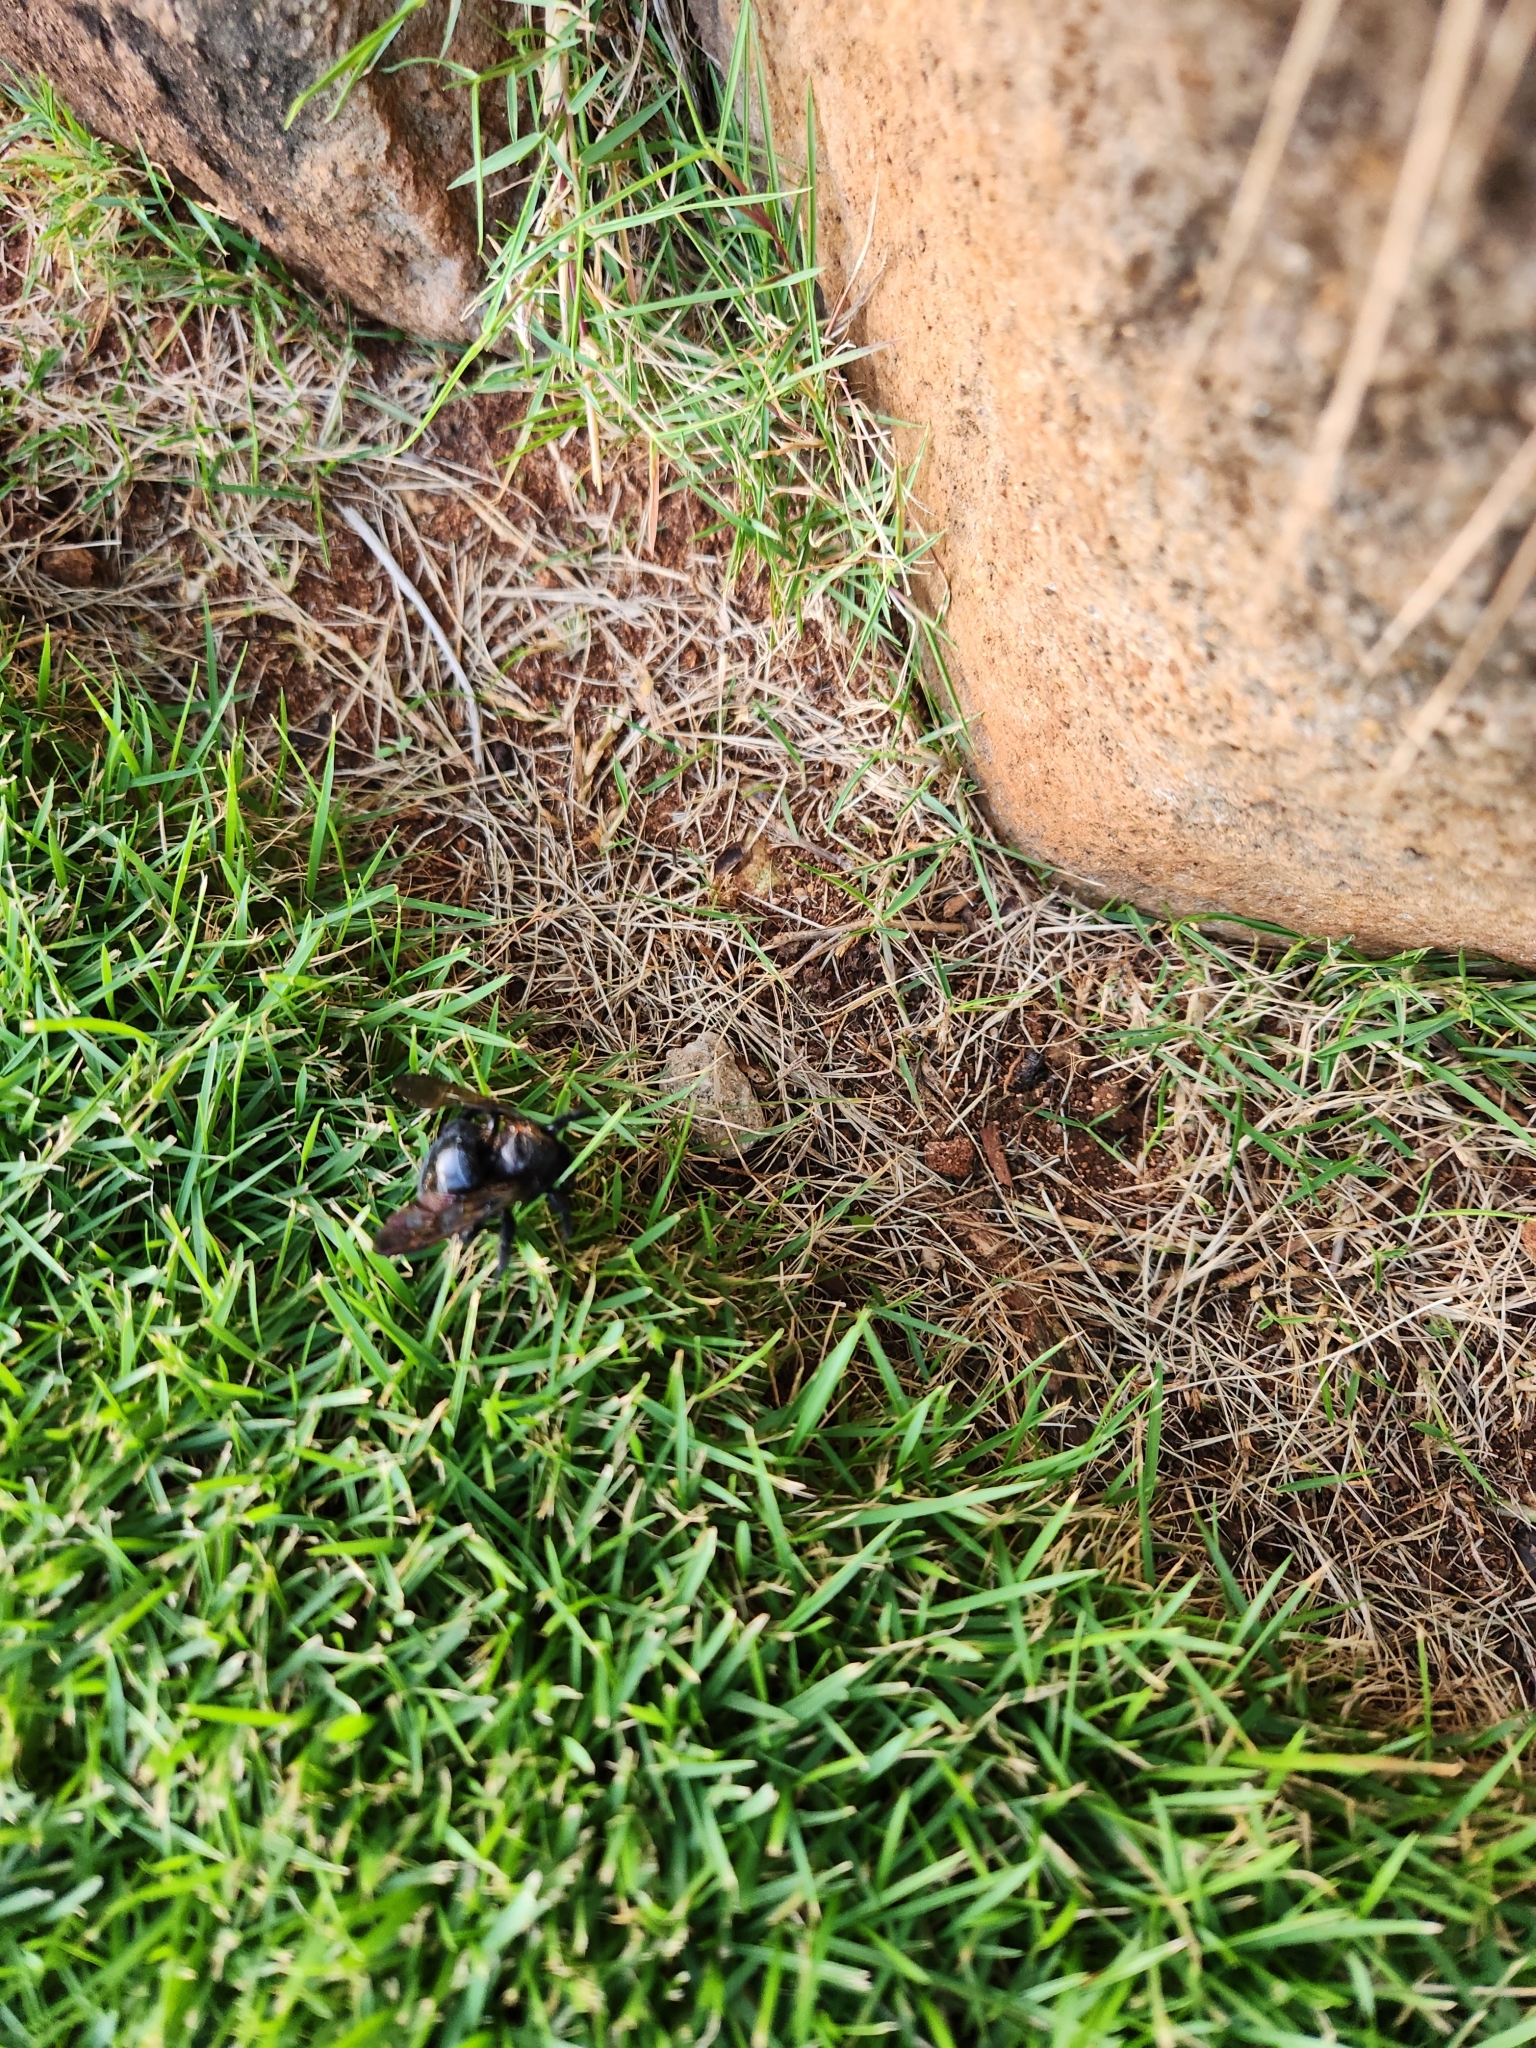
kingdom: Animalia
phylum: Arthropoda
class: Insecta
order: Hymenoptera
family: Apidae
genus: Xylocopa
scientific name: Xylocopa sonorina
